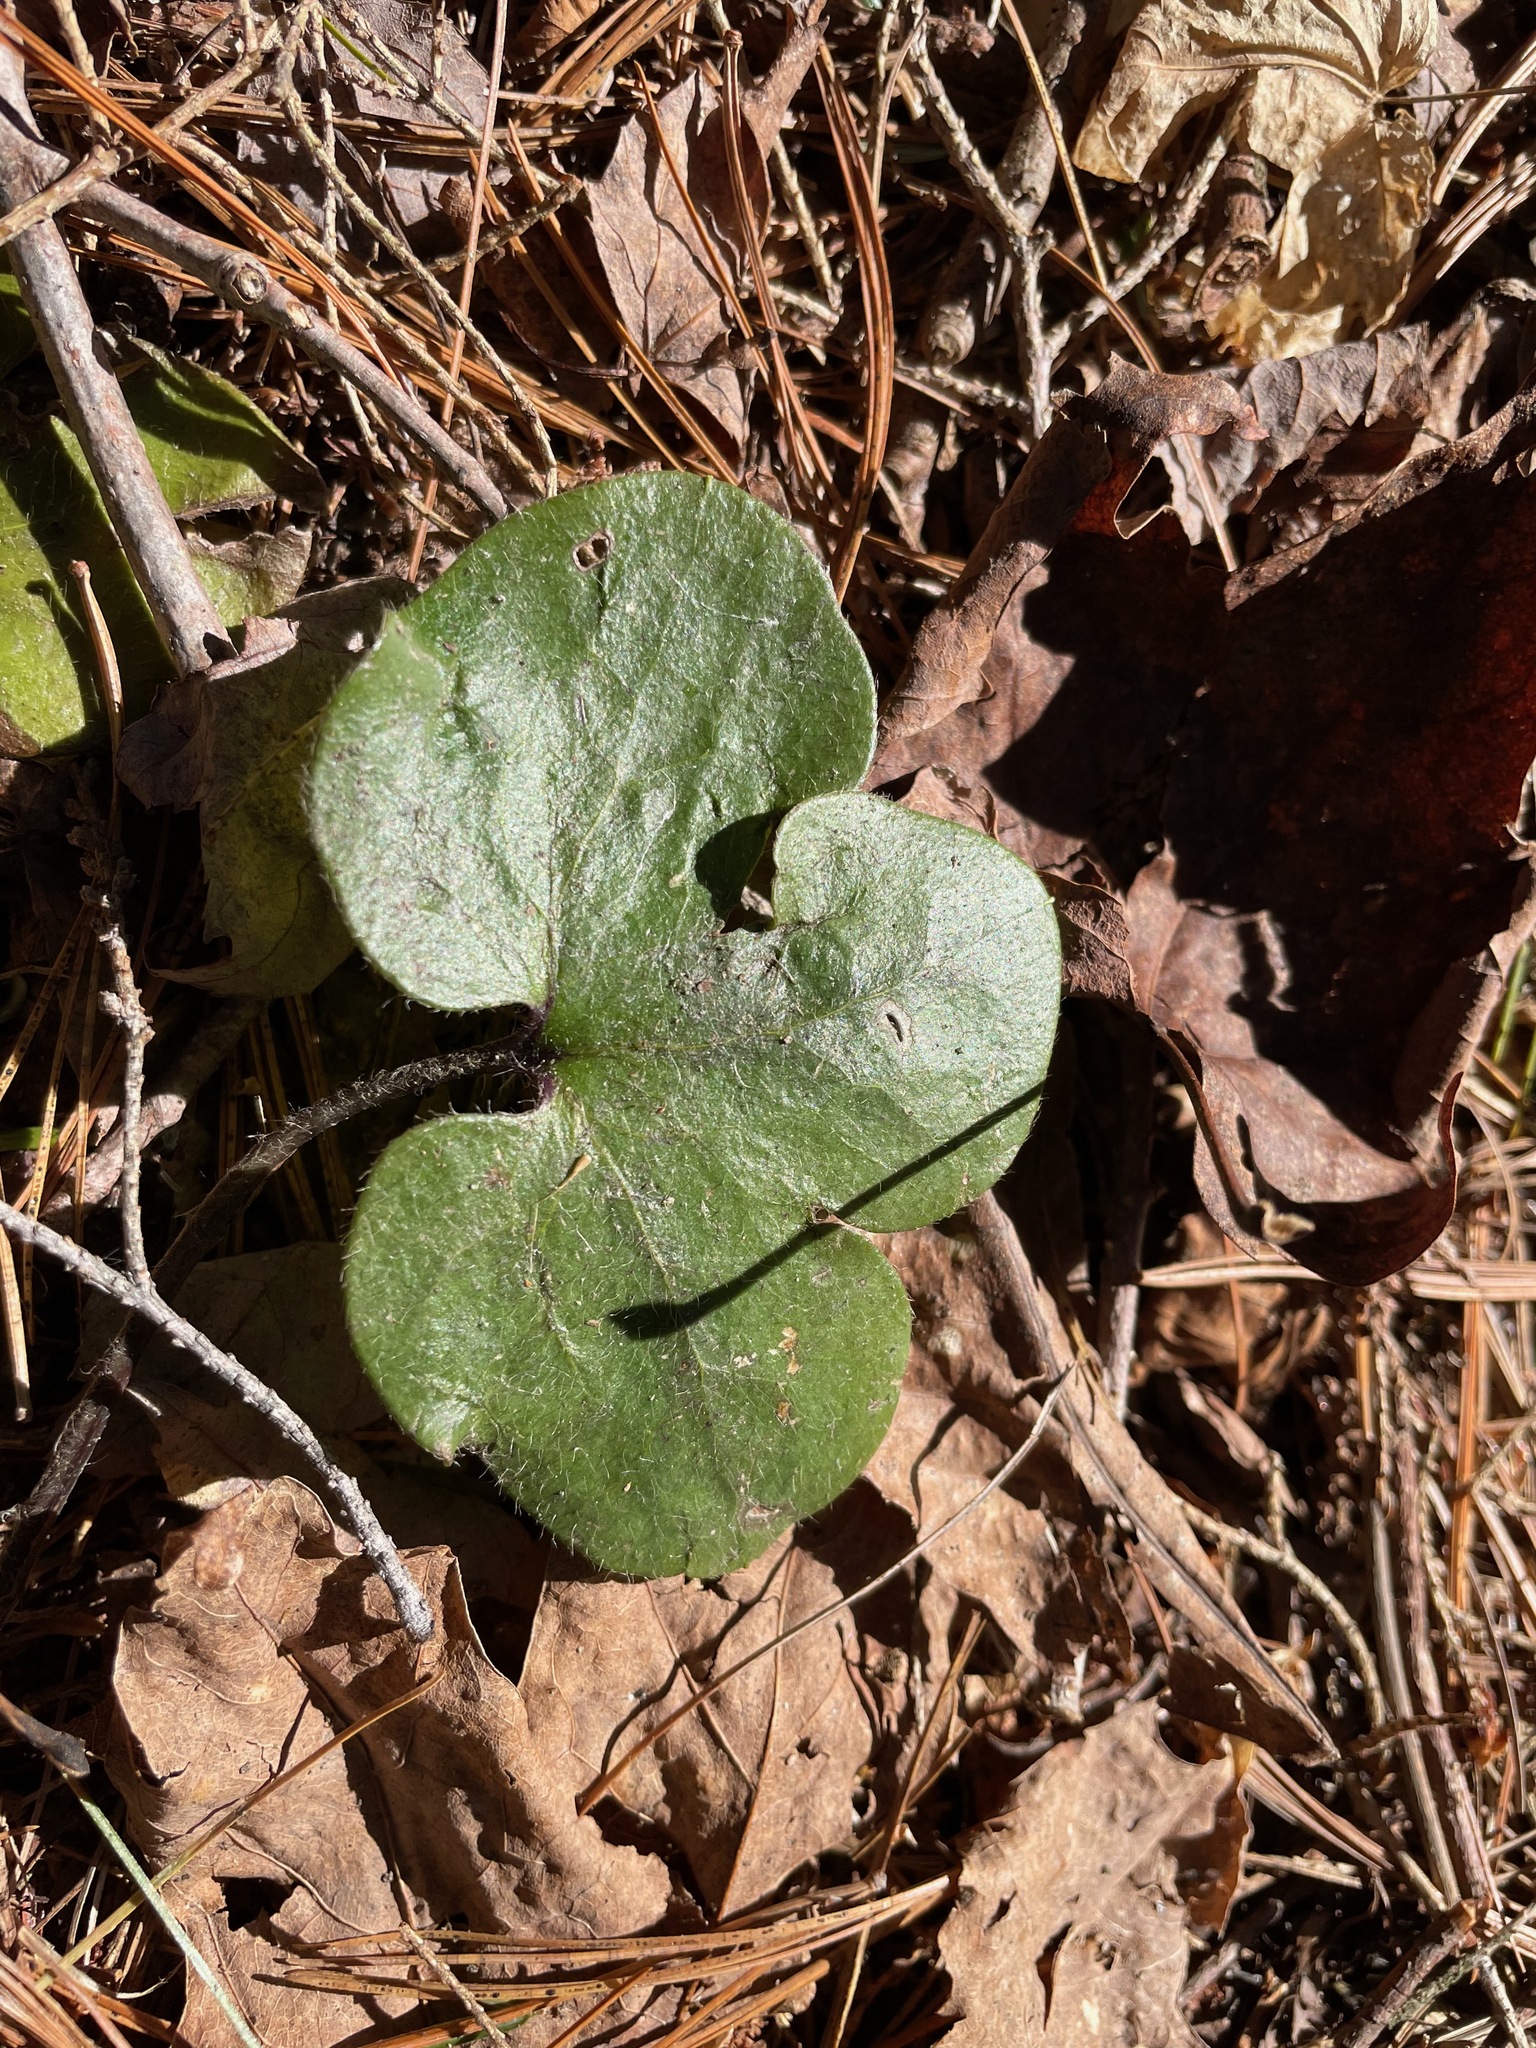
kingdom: Plantae
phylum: Tracheophyta
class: Magnoliopsida
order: Ranunculales
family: Ranunculaceae
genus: Hepatica
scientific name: Hepatica americana
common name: American hepatica
